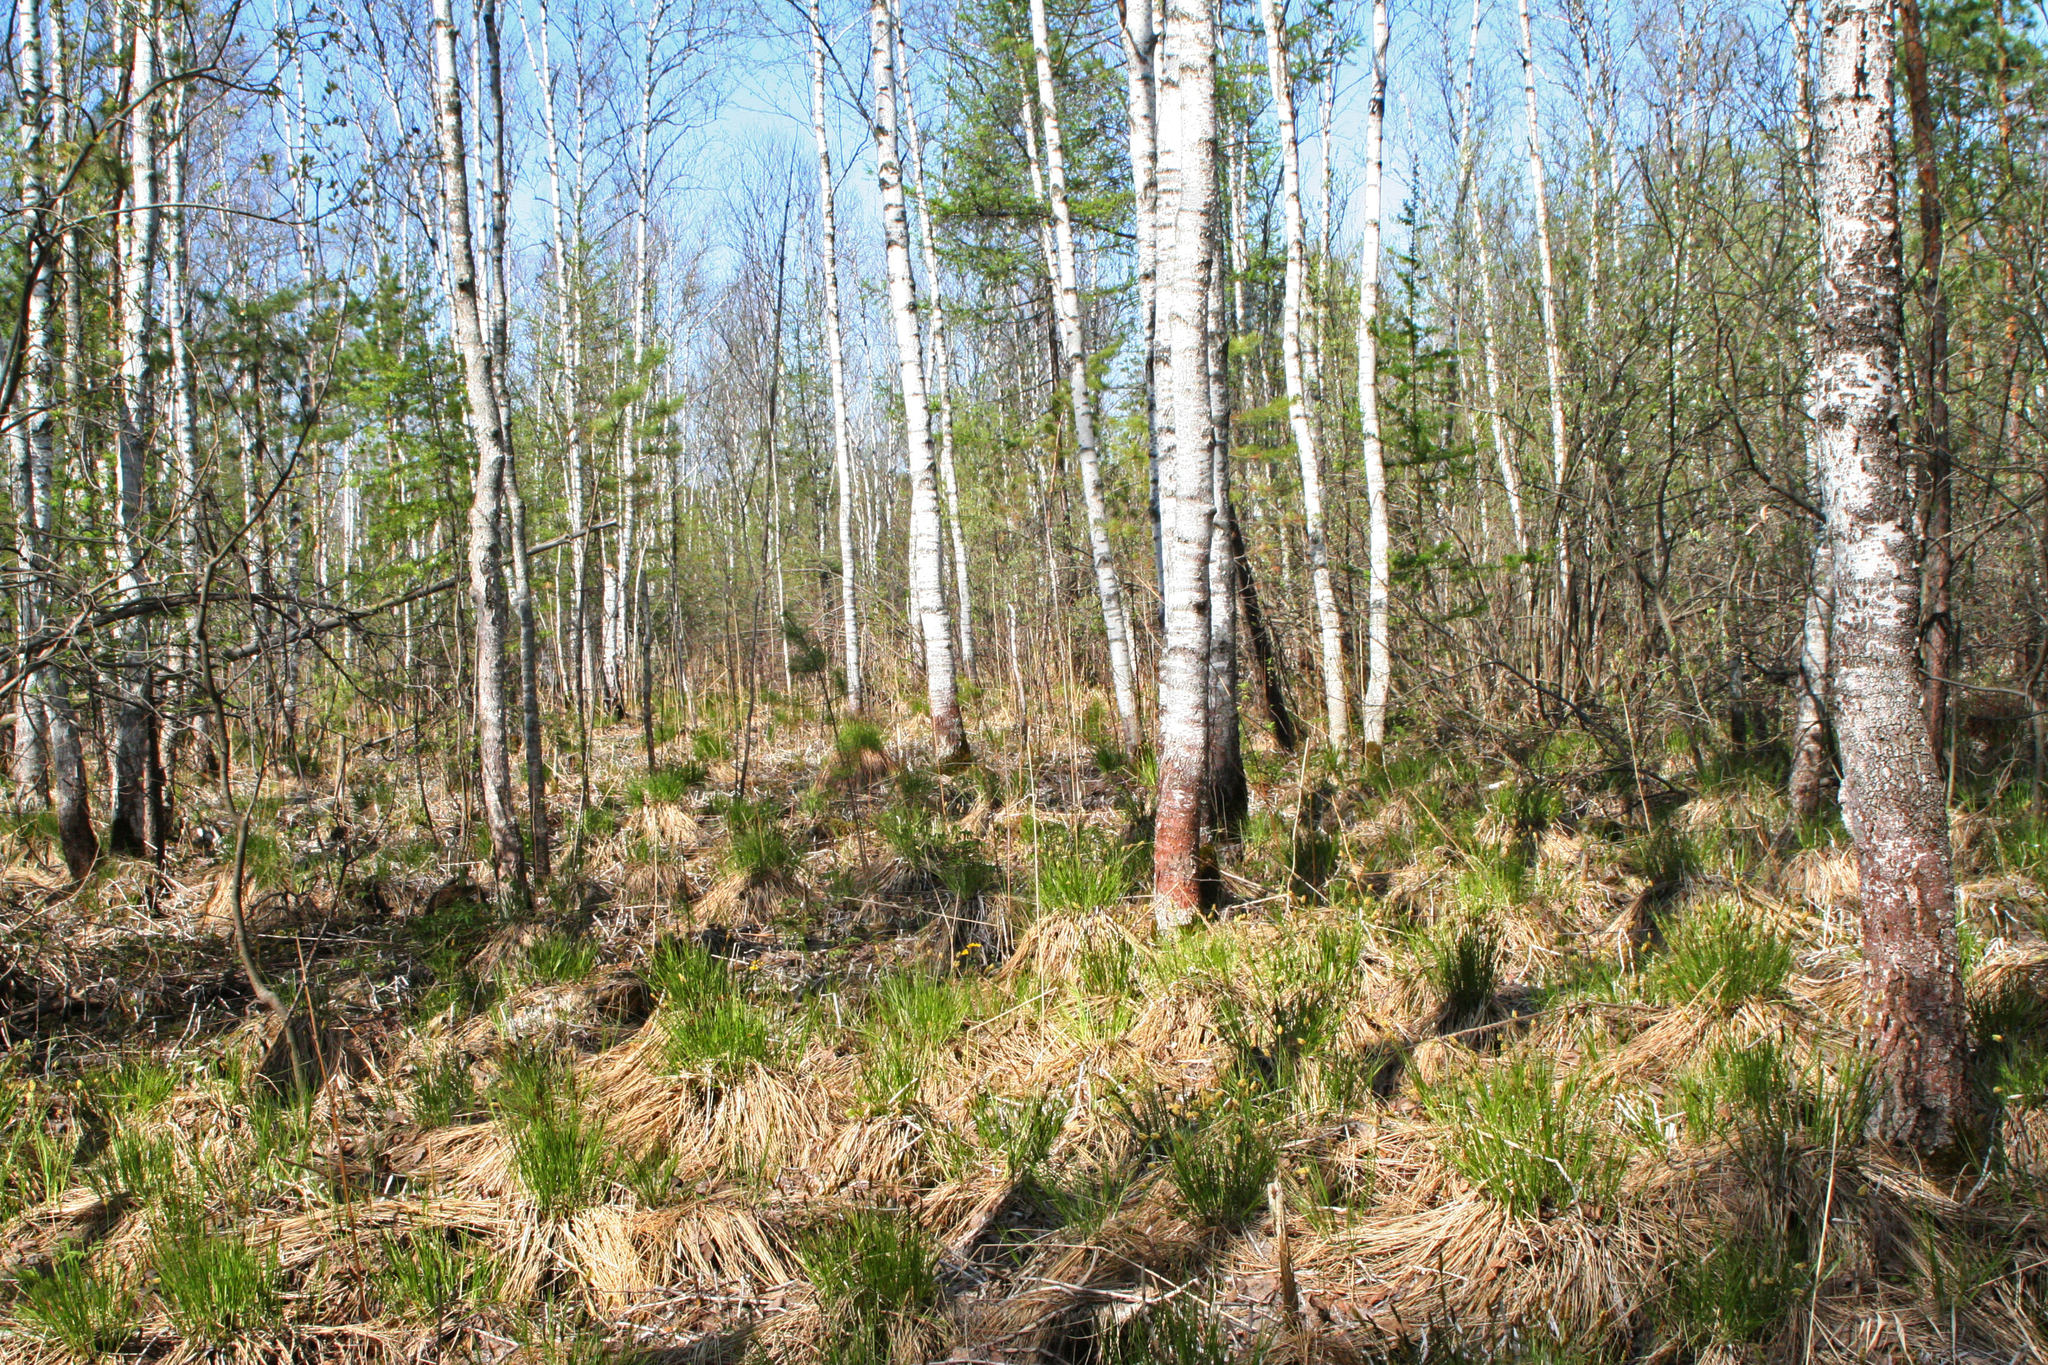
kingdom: Plantae
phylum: Tracheophyta
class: Liliopsida
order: Poales
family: Cyperaceae
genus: Carex
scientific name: Carex cespitosa
